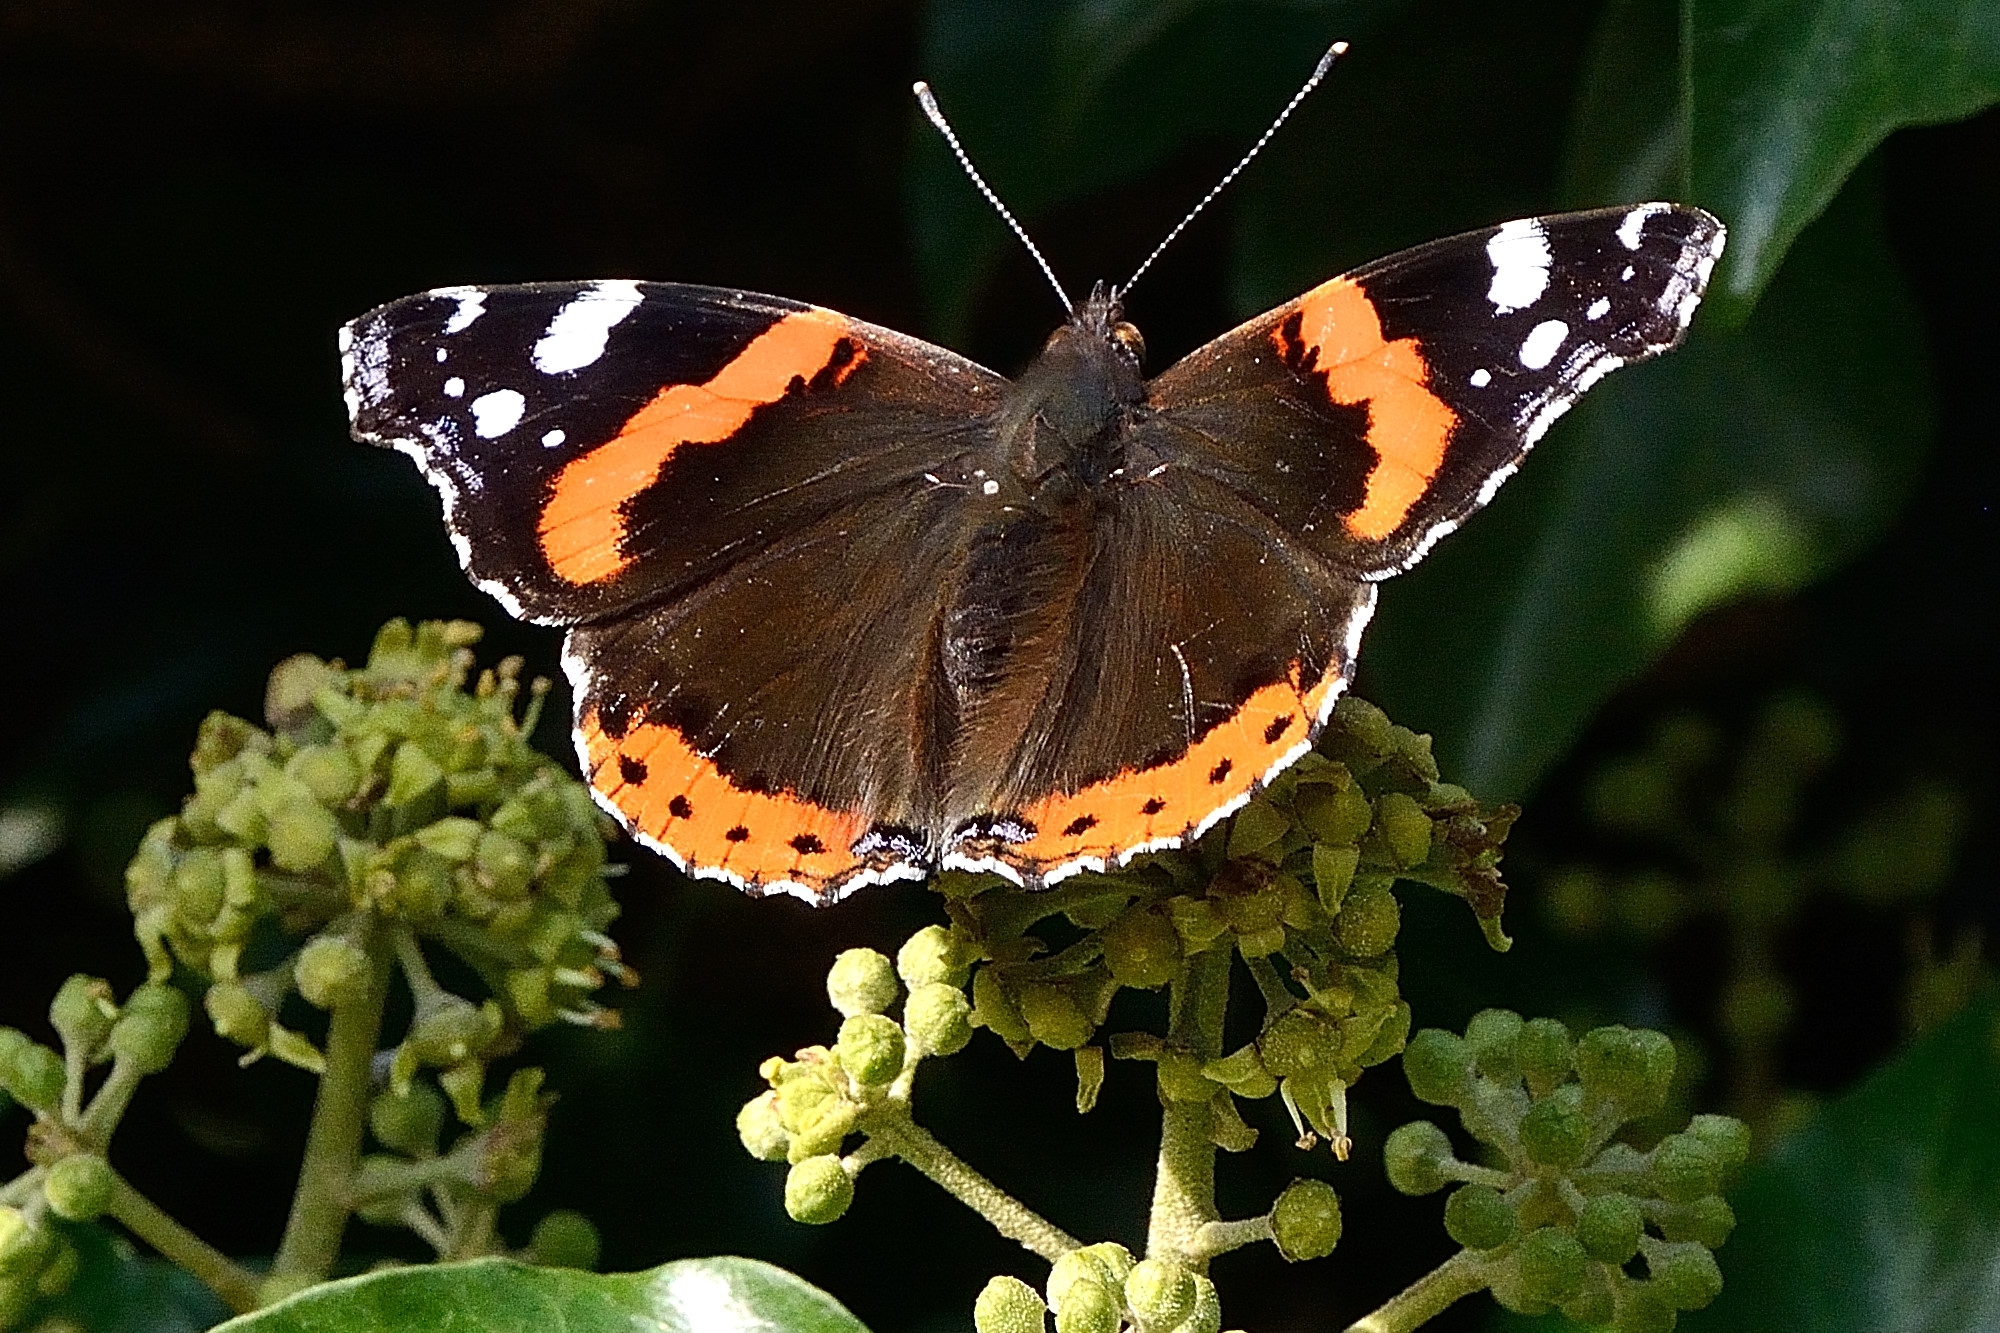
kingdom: Animalia
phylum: Arthropoda
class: Insecta
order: Lepidoptera
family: Nymphalidae
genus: Vanessa
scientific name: Vanessa atalanta
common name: Red admiral
